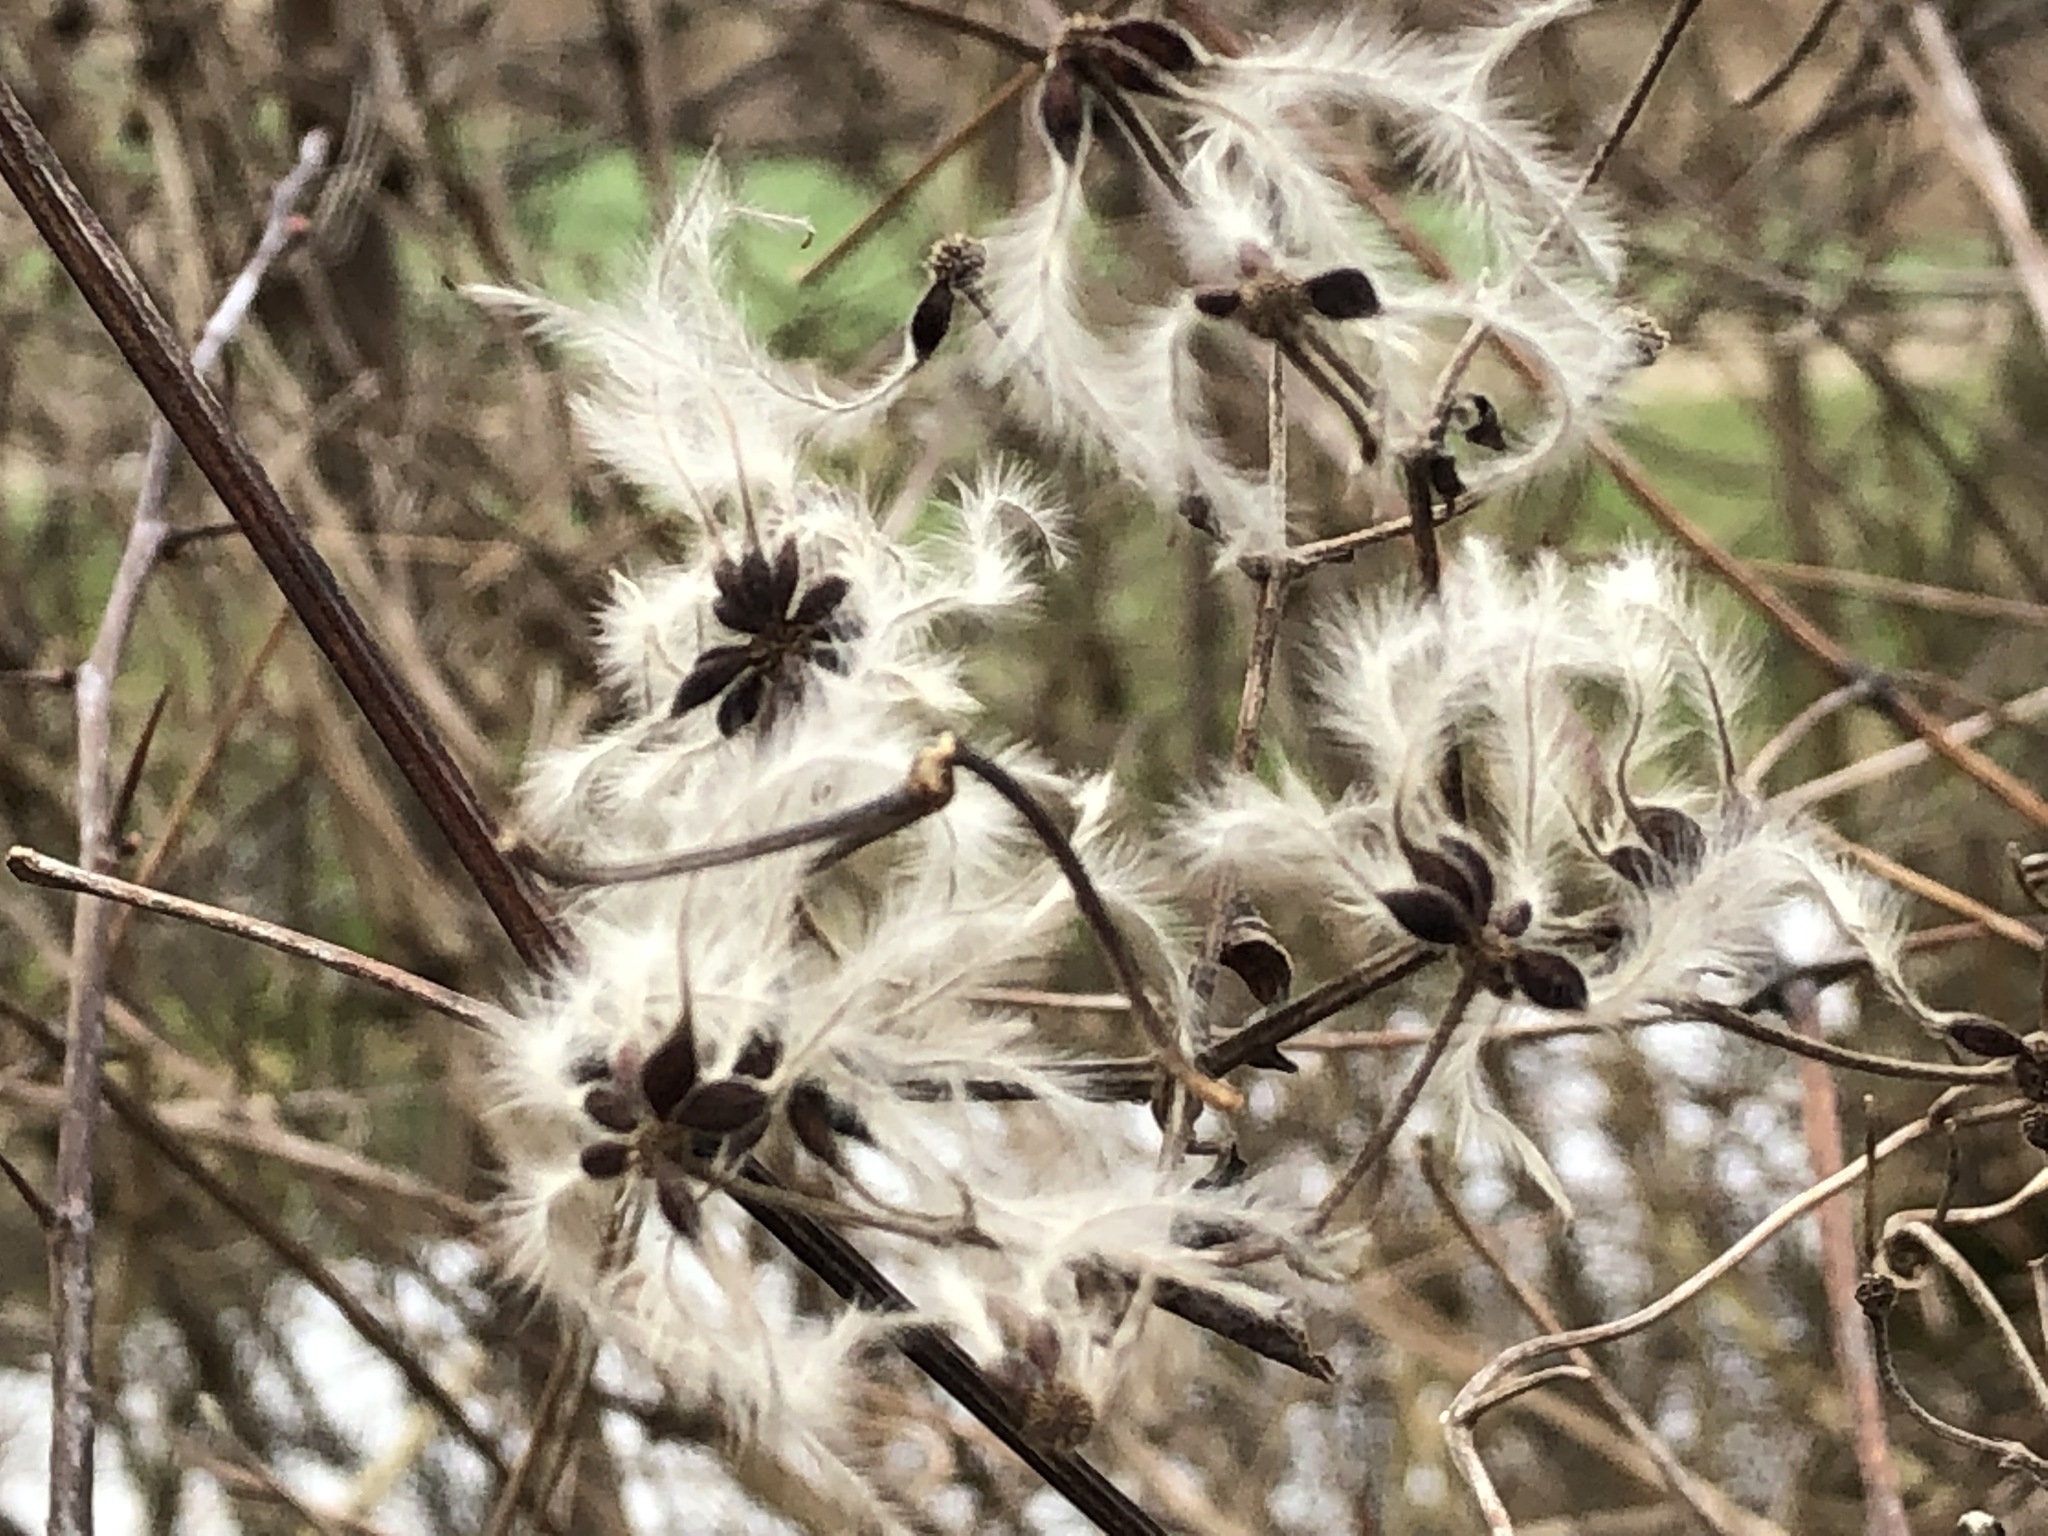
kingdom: Plantae
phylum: Tracheophyta
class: Magnoliopsida
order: Ranunculales
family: Ranunculaceae
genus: Clematis
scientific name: Clematis vitalba
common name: Evergreen clematis
